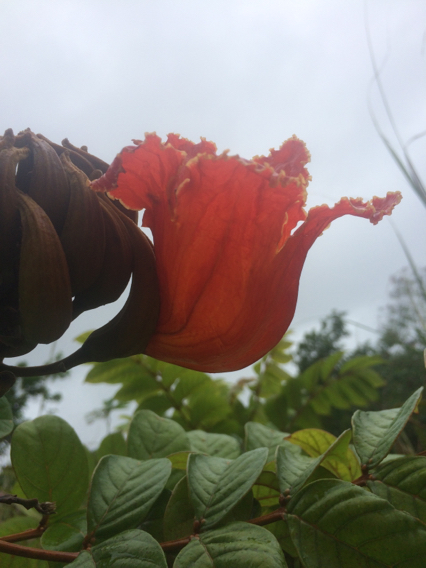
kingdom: Plantae
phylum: Tracheophyta
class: Magnoliopsida
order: Lamiales
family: Bignoniaceae
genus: Spathodea
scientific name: Spathodea campanulata
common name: African tuliptree
